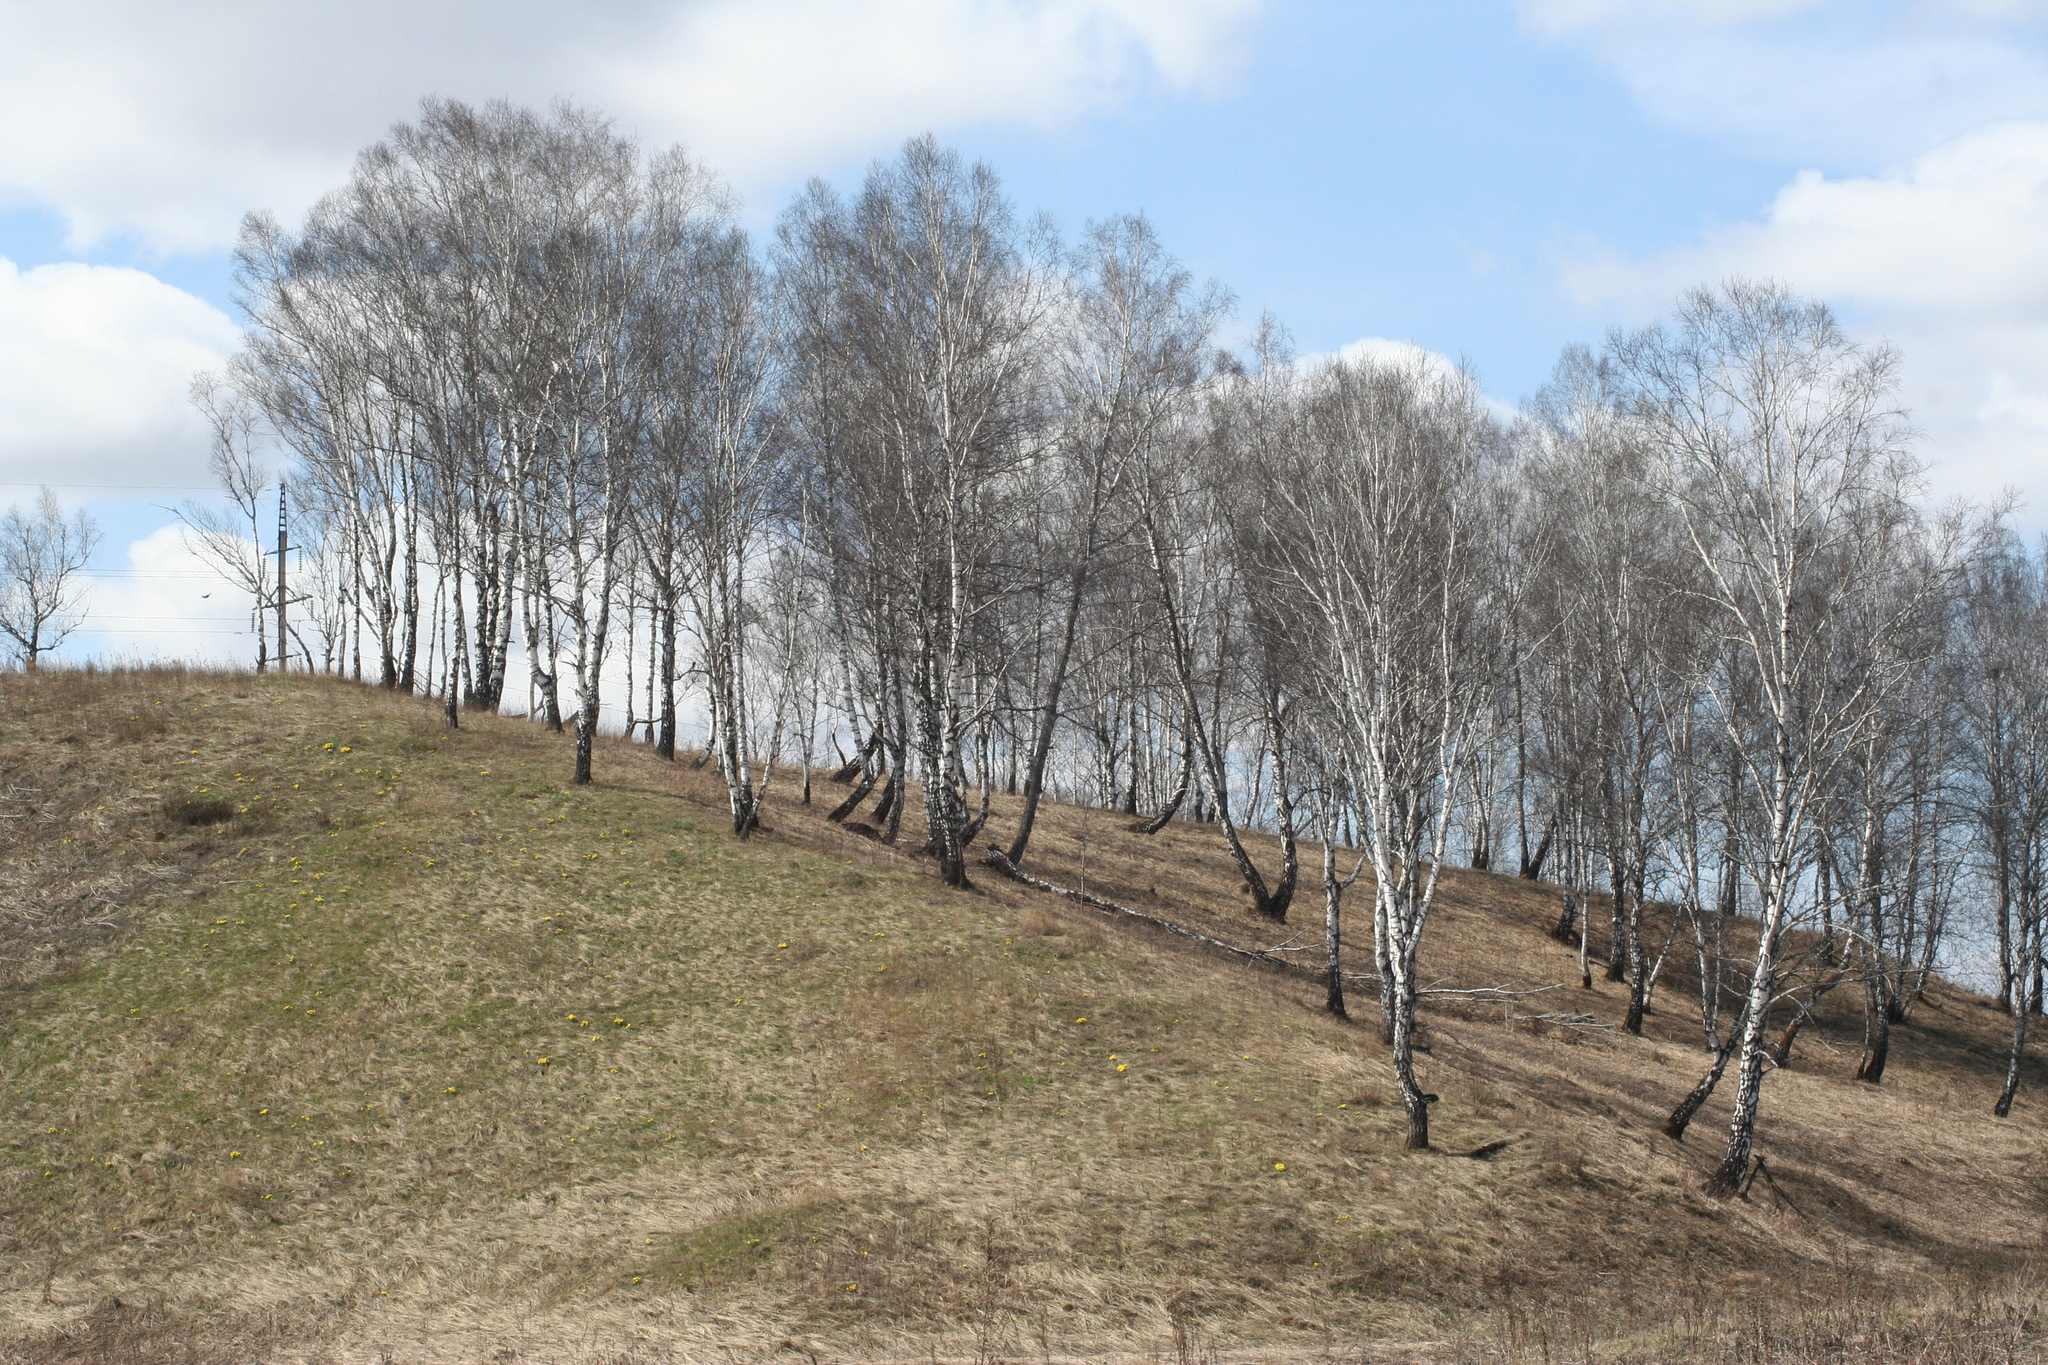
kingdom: Plantae
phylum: Tracheophyta
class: Magnoliopsida
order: Fagales
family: Betulaceae
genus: Betula
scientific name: Betula pendula
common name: Silver birch
